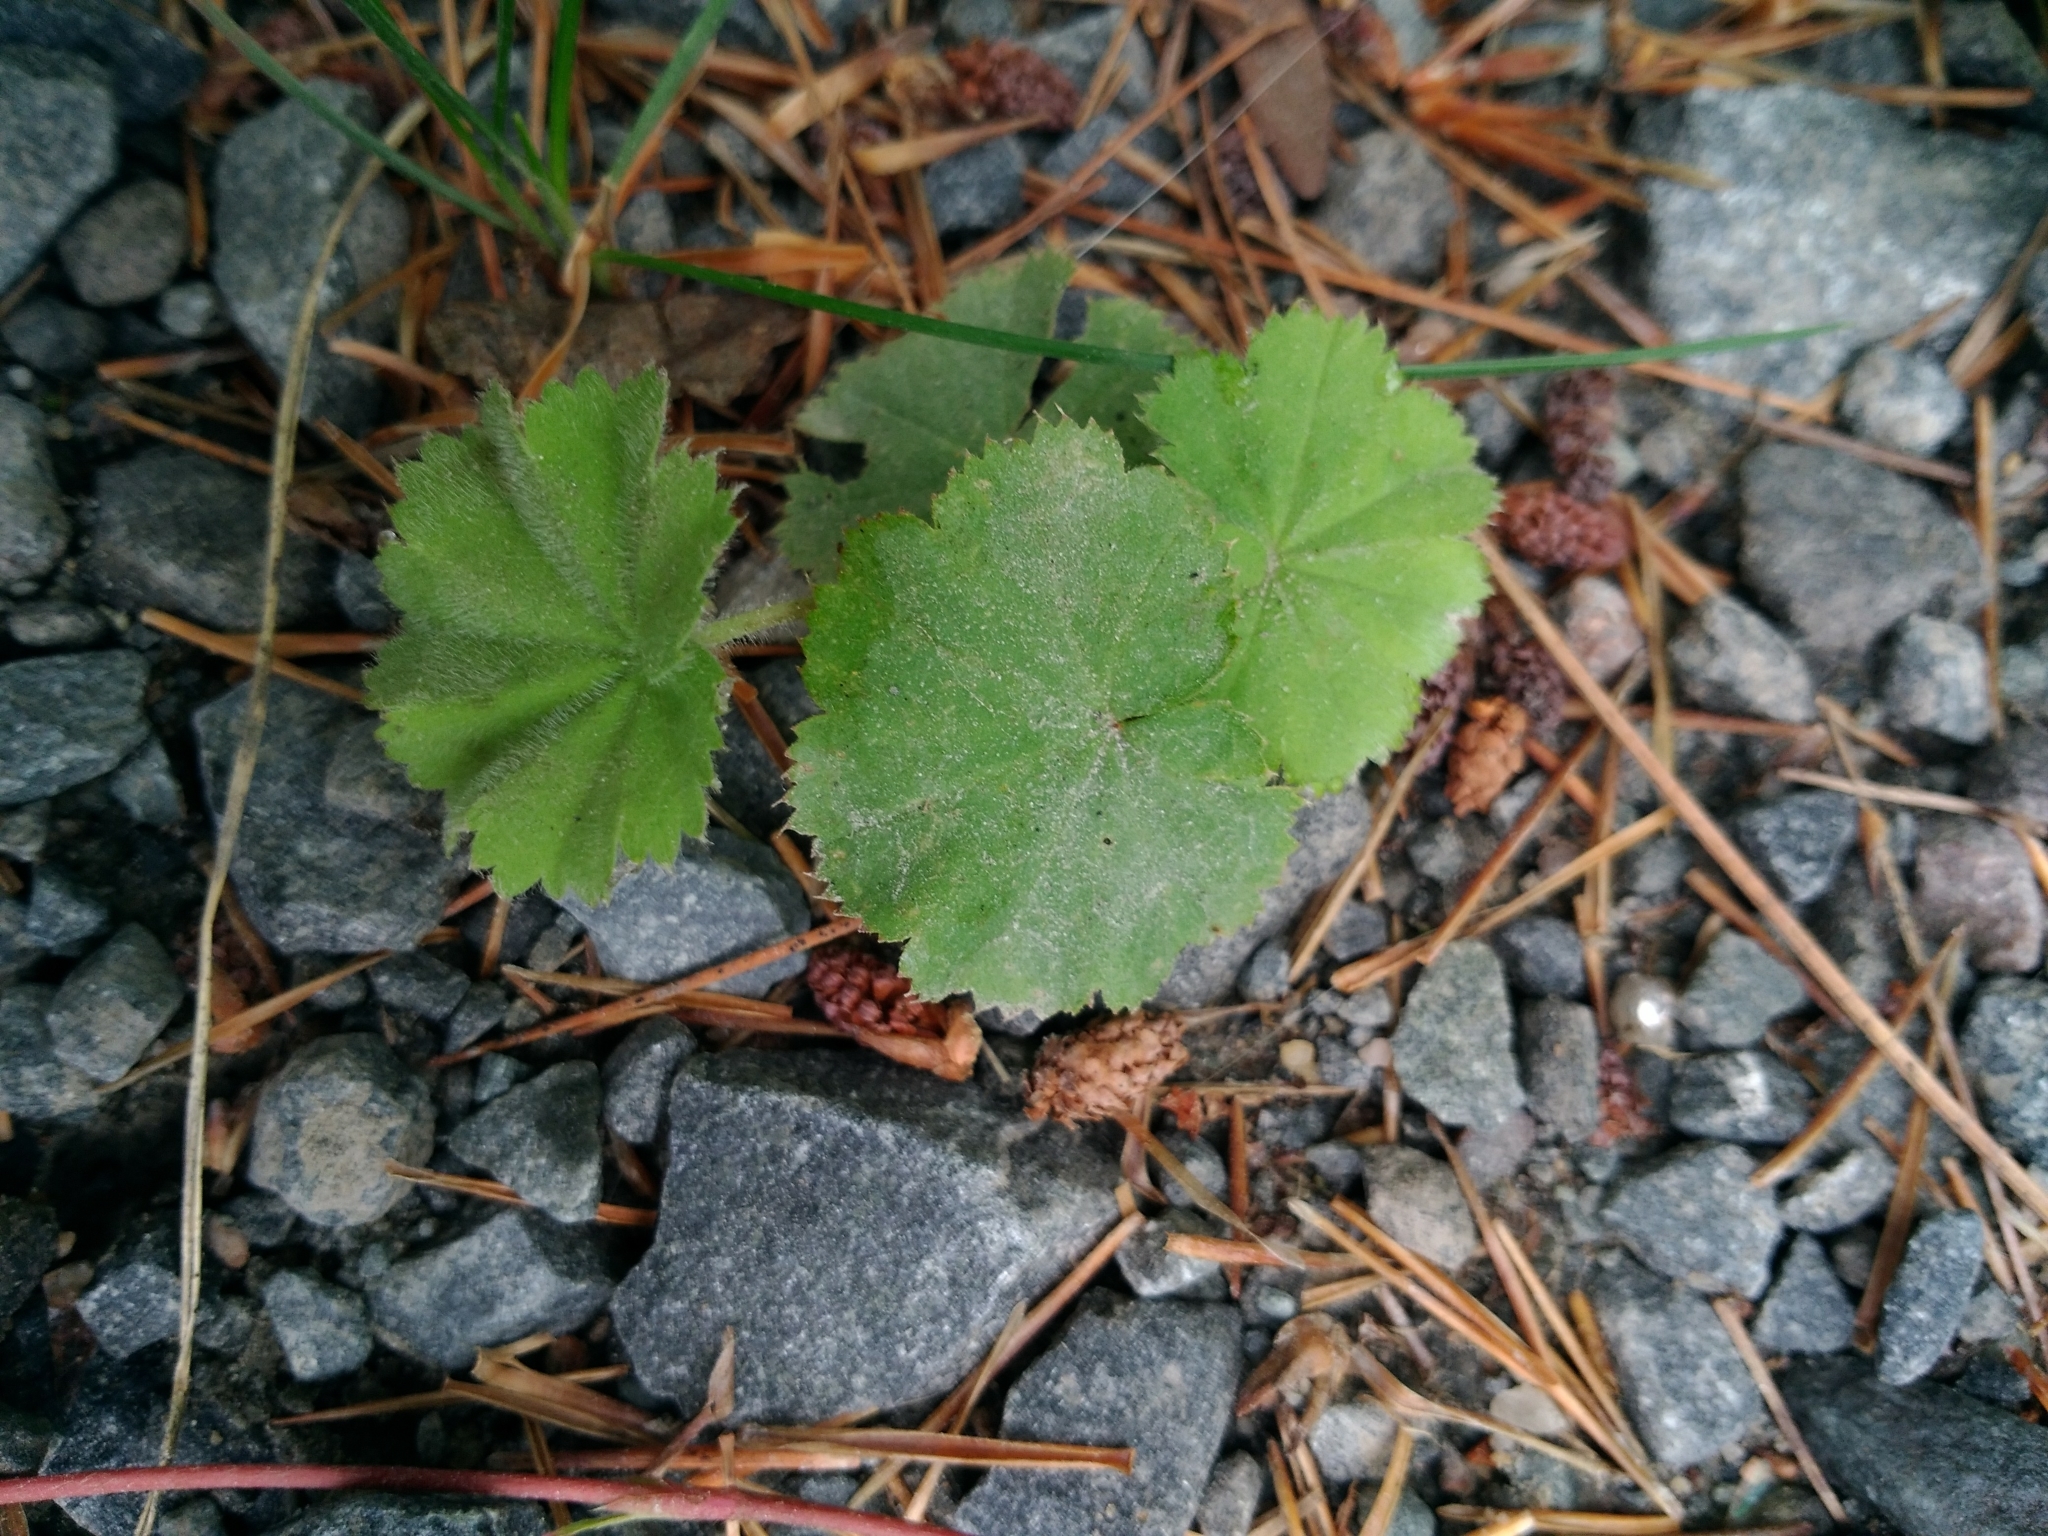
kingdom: Plantae
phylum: Tracheophyta
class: Magnoliopsida
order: Rosales
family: Rosaceae
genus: Alchemilla
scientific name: Alchemilla mollis
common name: Lady's-mantle
